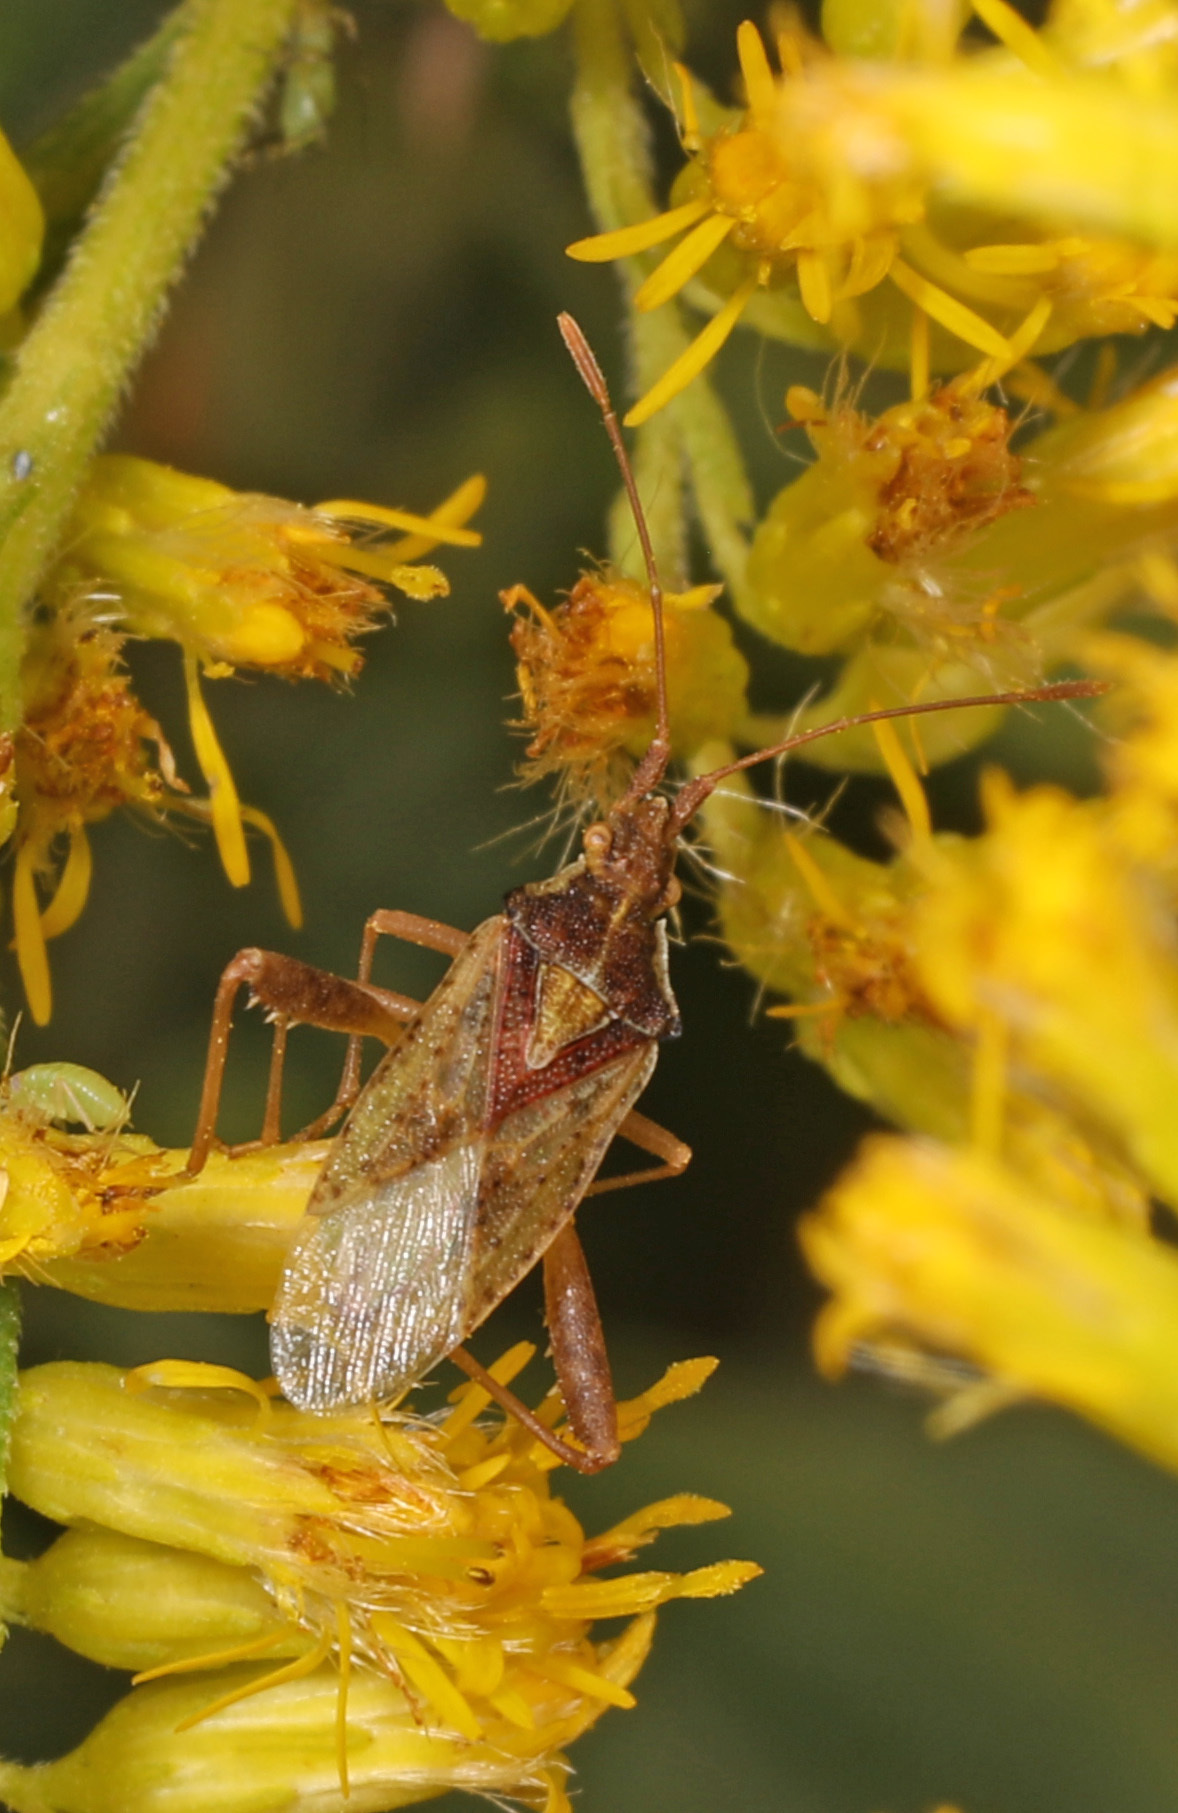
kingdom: Animalia
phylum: Arthropoda
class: Insecta
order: Hemiptera
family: Rhopalidae
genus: Harmostes
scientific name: Harmostes reflexulus
